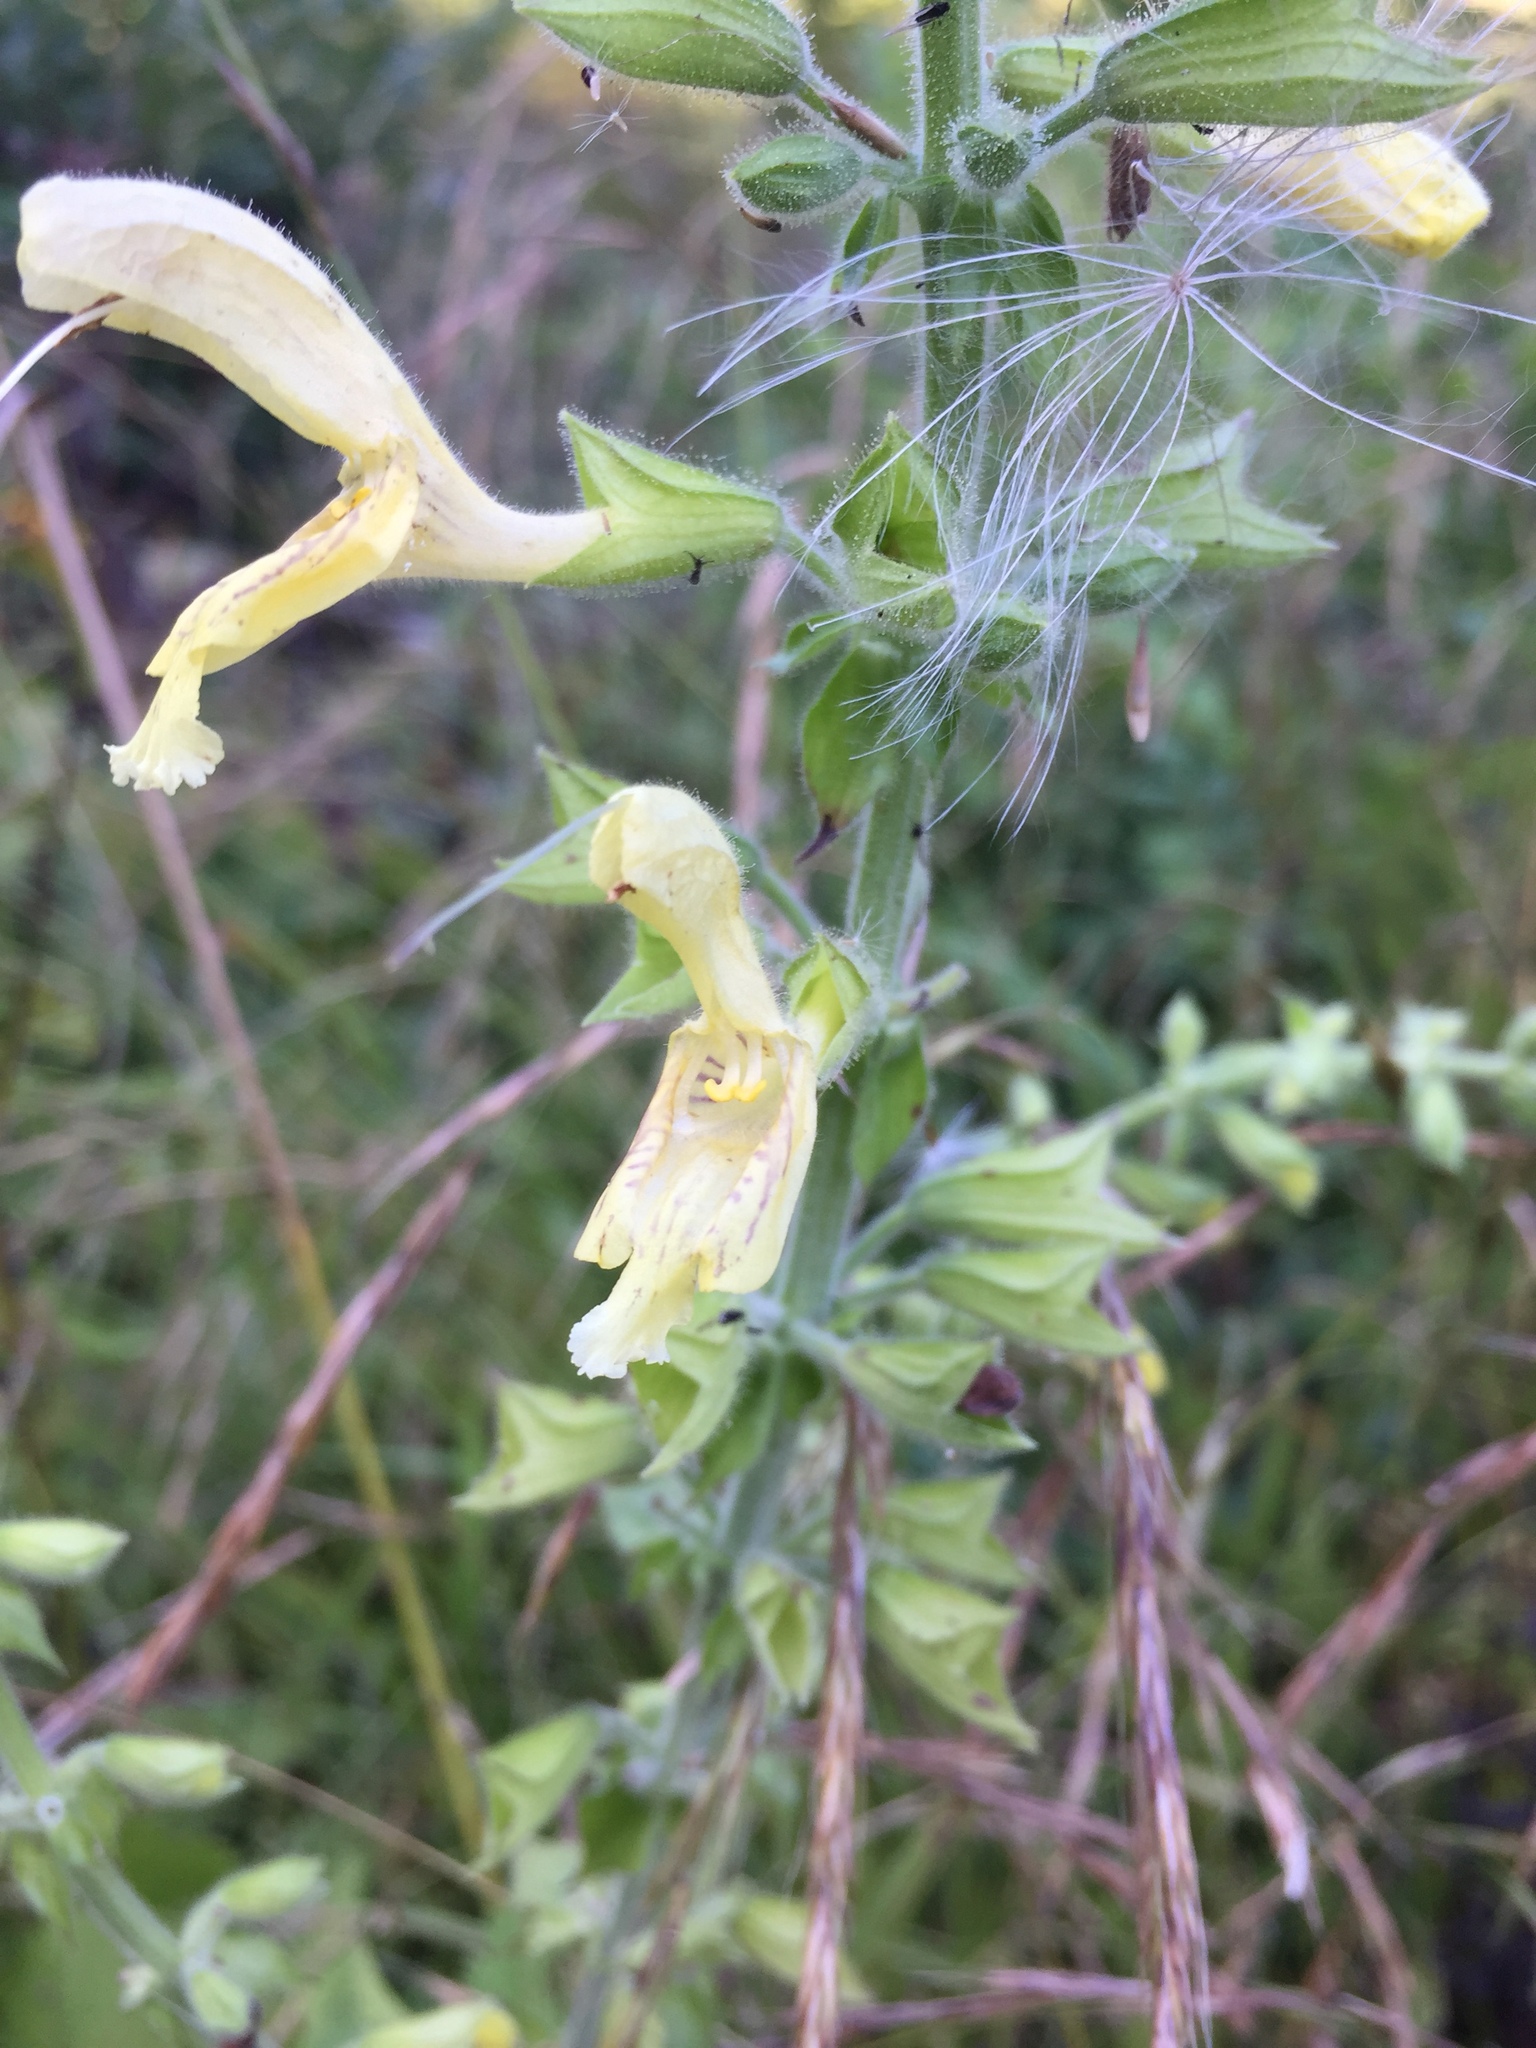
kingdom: Plantae
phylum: Tracheophyta
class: Magnoliopsida
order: Lamiales
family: Lamiaceae
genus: Salvia
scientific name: Salvia glutinosa
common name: Sticky clary
